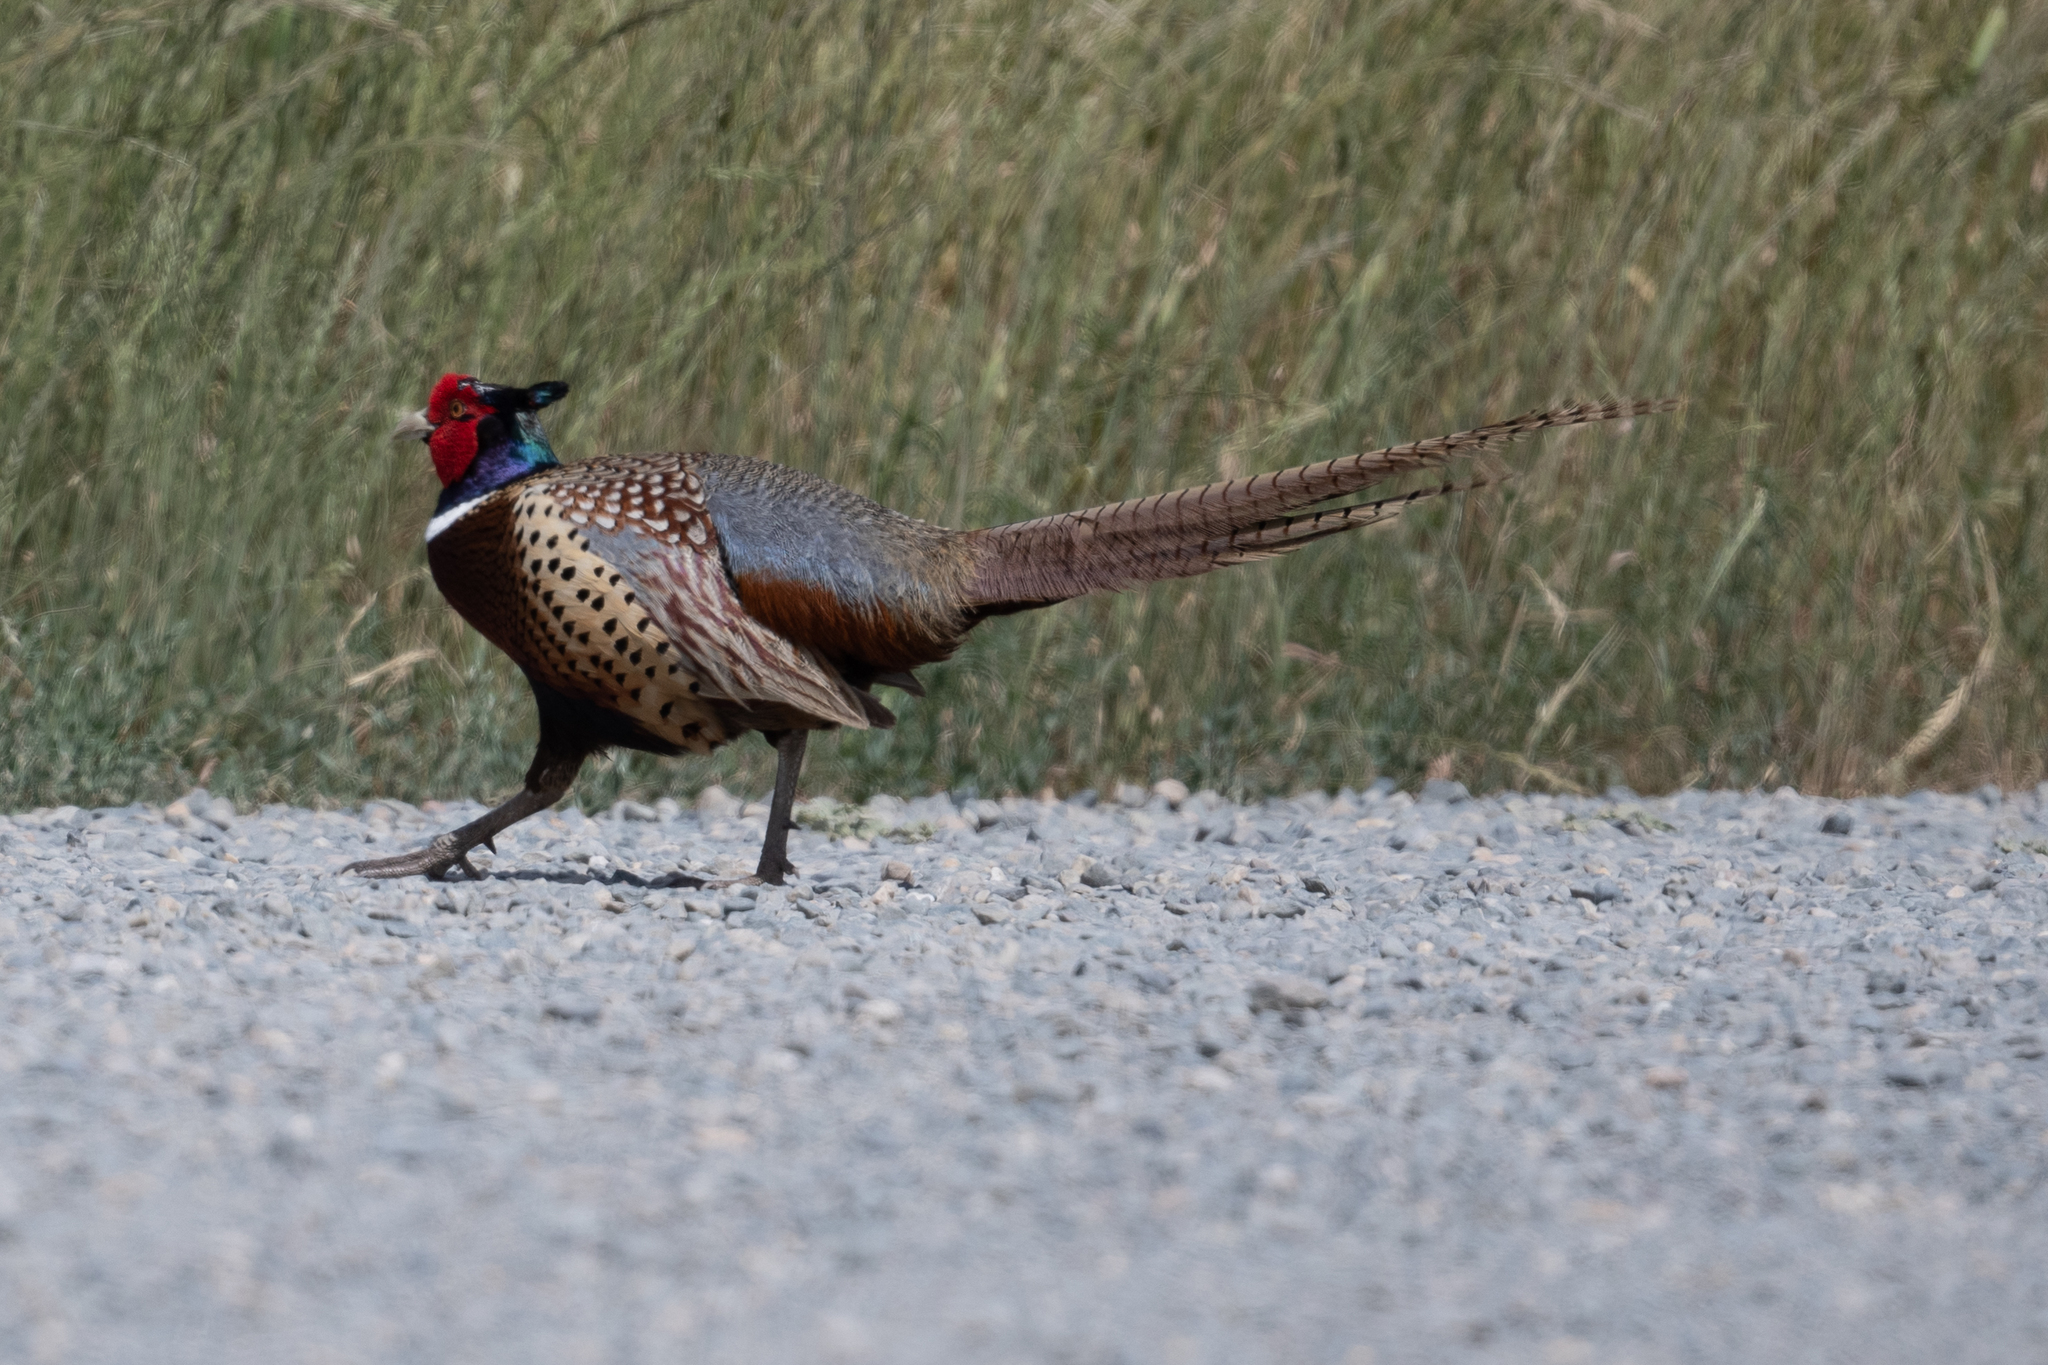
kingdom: Animalia
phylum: Chordata
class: Aves
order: Galliformes
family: Phasianidae
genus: Phasianus
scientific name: Phasianus colchicus
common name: Common pheasant
